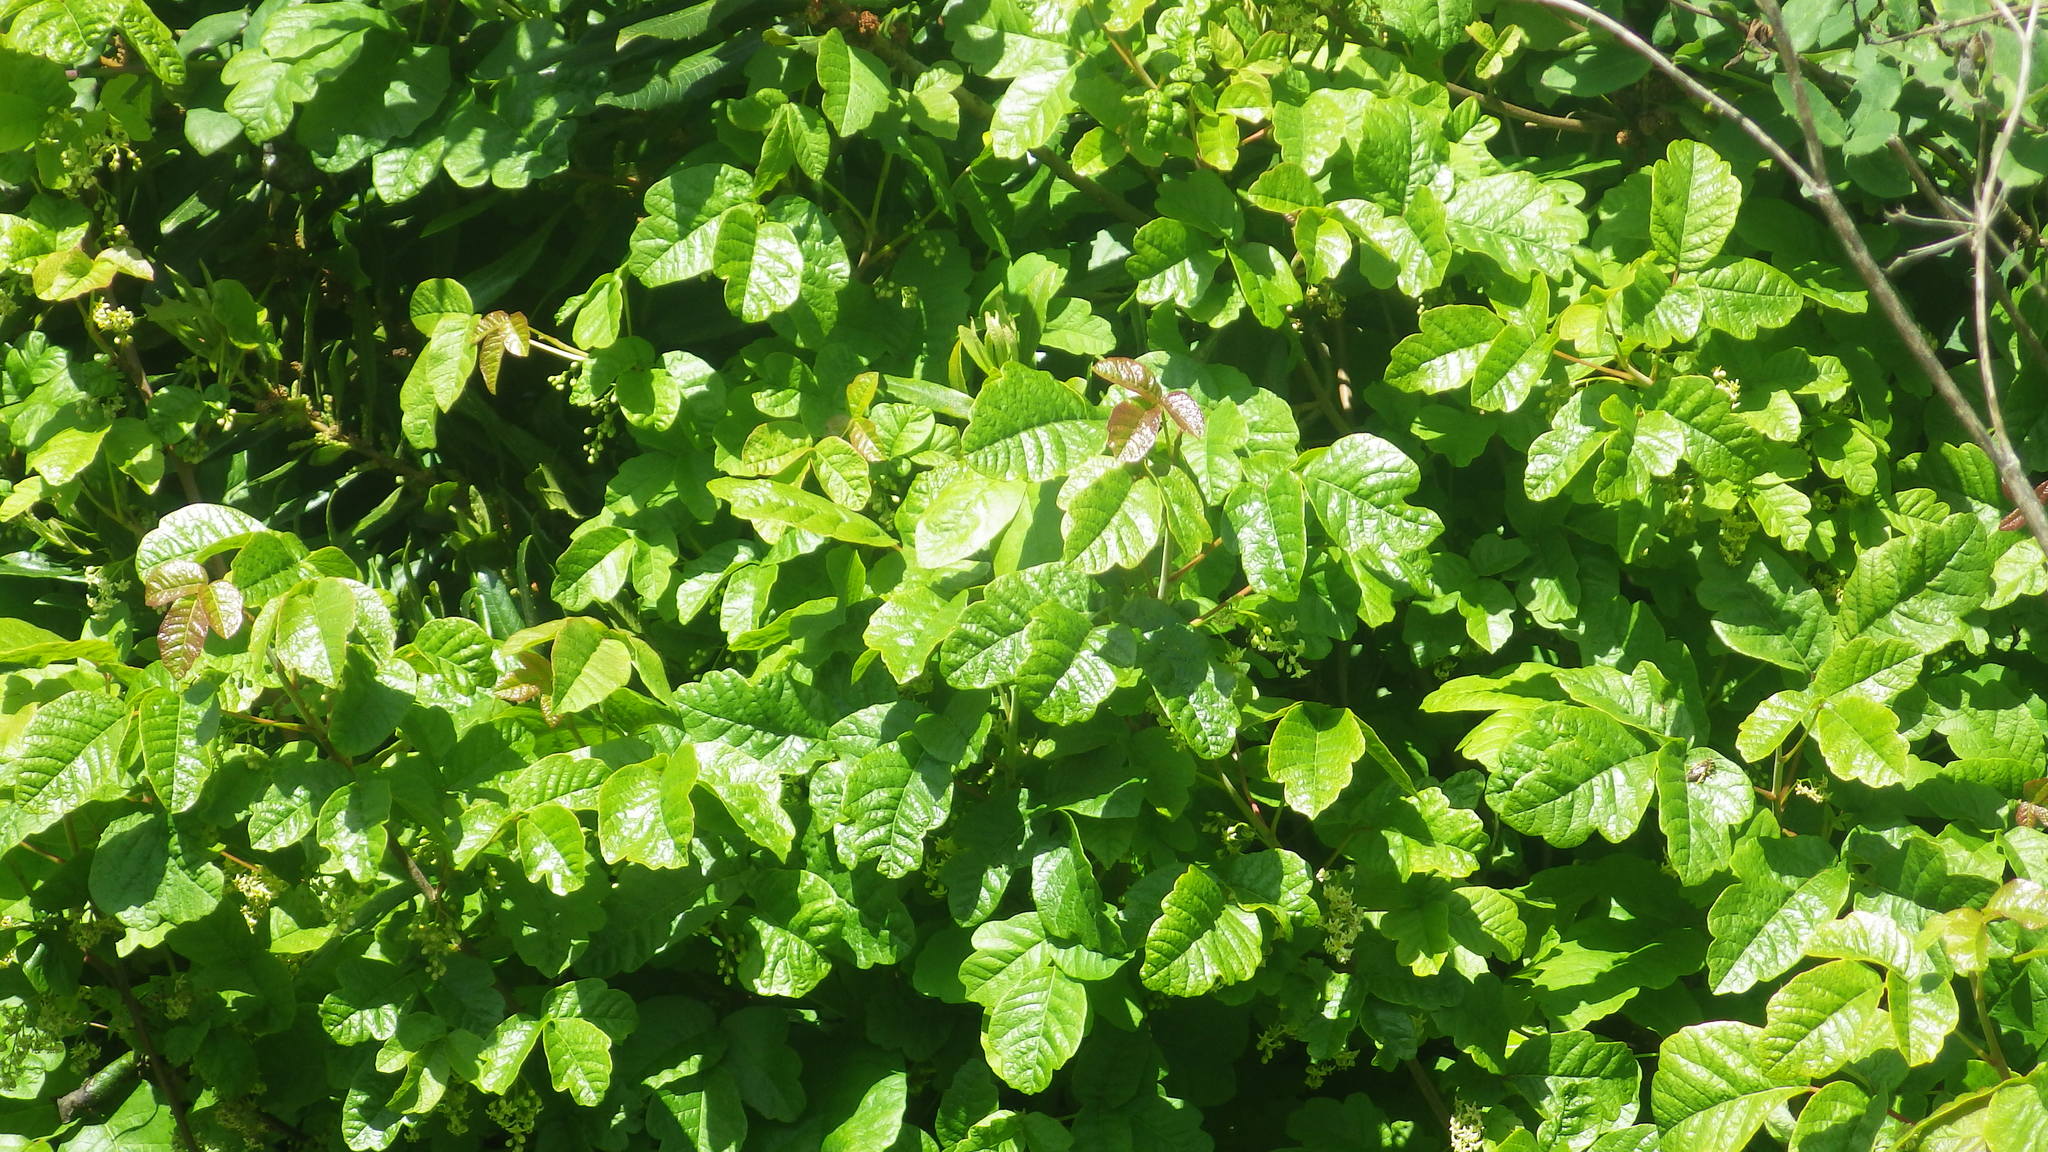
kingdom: Plantae
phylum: Tracheophyta
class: Magnoliopsida
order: Sapindales
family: Anacardiaceae
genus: Toxicodendron
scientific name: Toxicodendron diversilobum
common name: Pacific poison-oak
